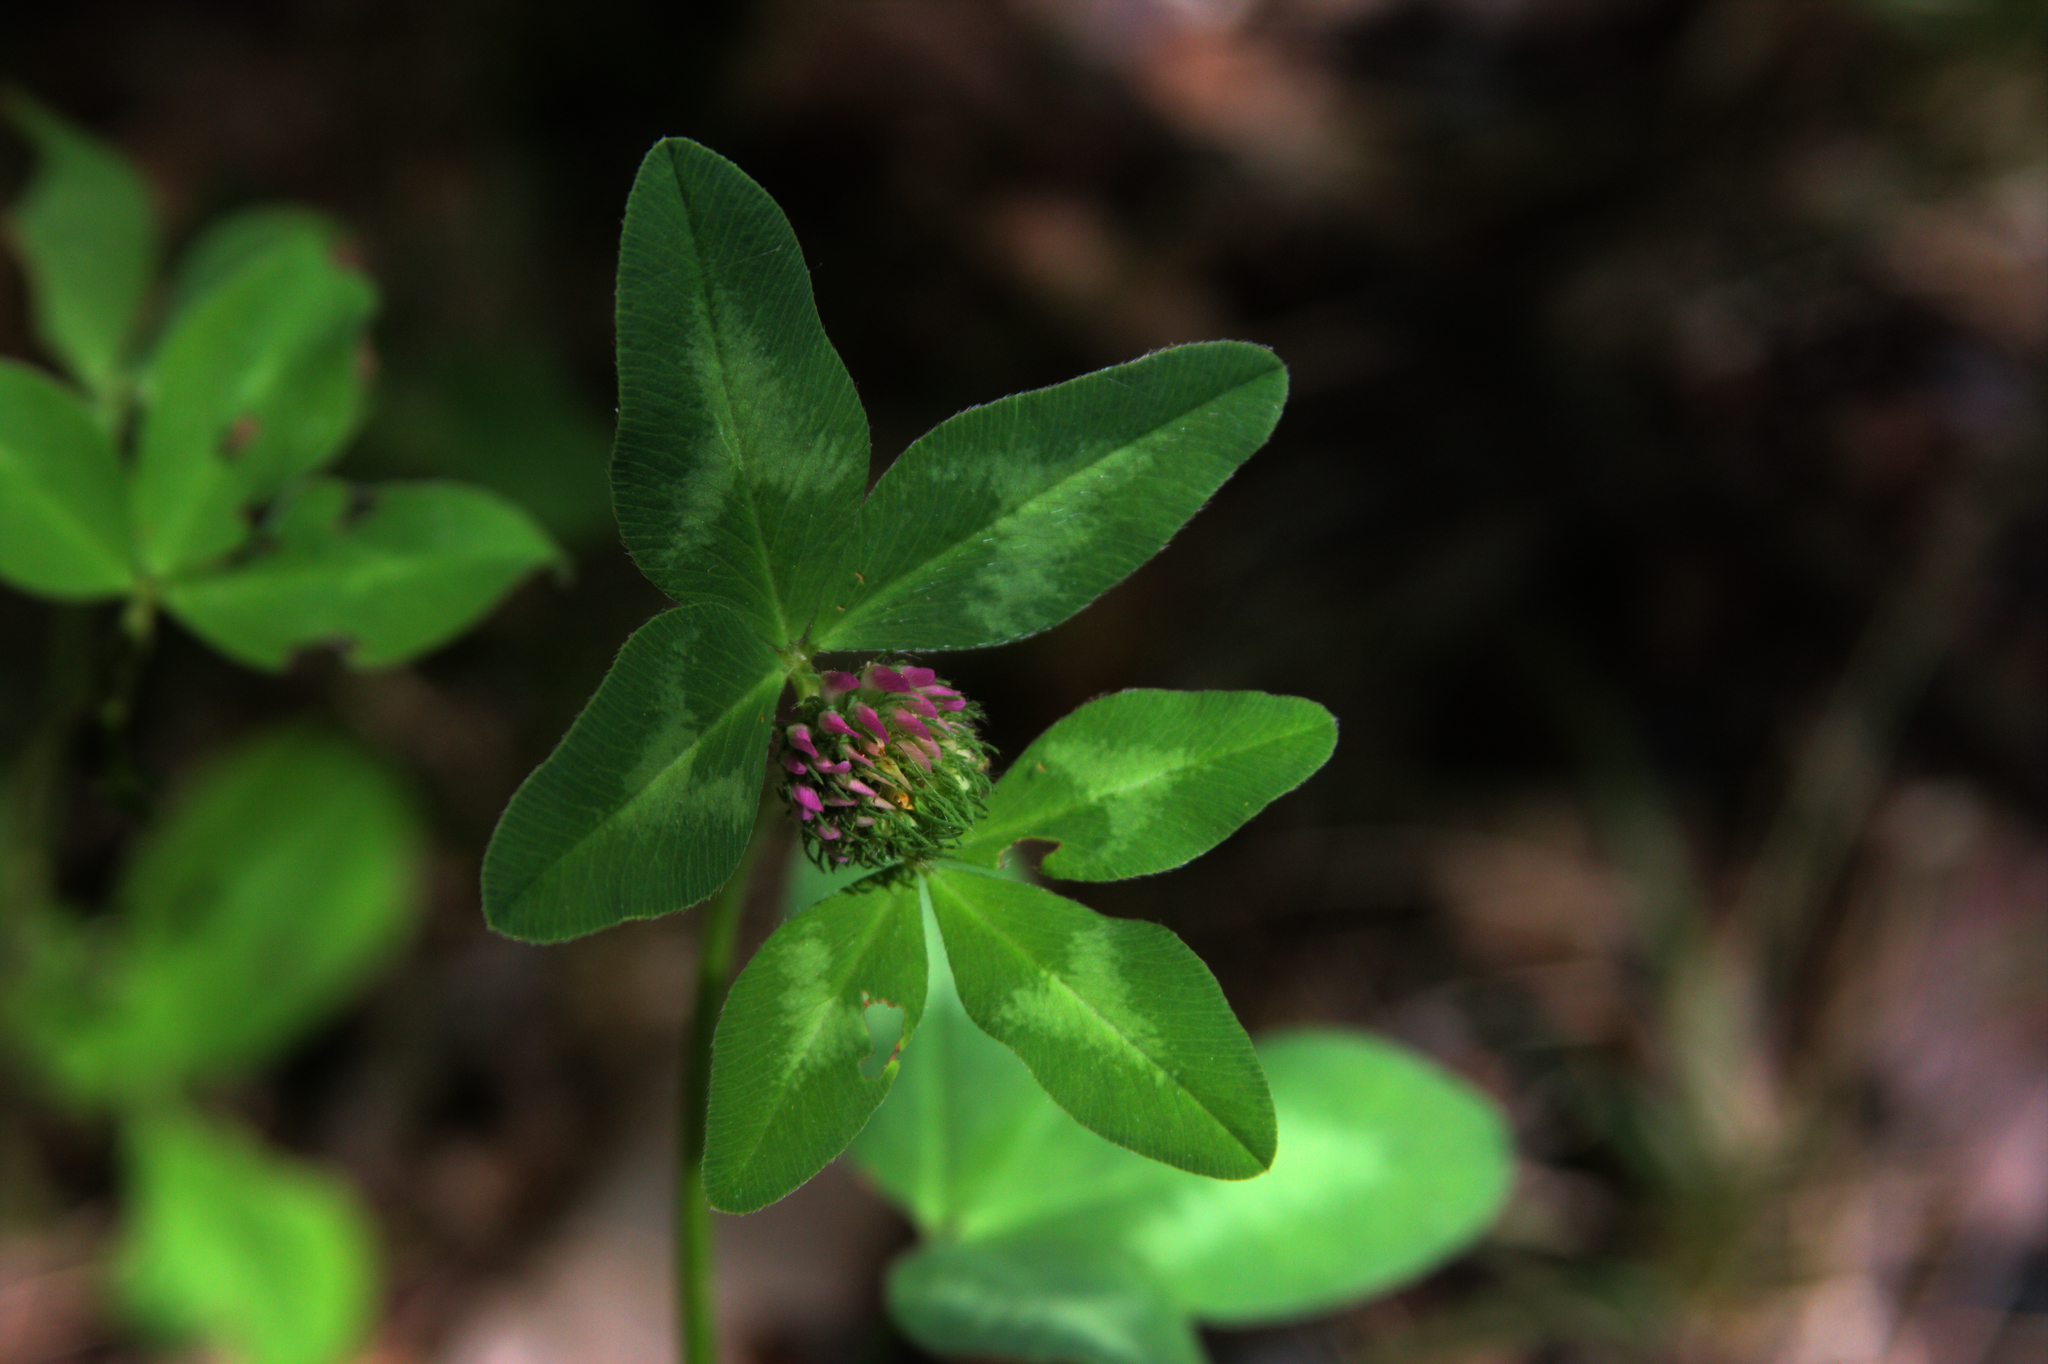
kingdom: Plantae
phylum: Tracheophyta
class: Magnoliopsida
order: Fabales
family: Fabaceae
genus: Trifolium
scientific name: Trifolium pratense
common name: Red clover
